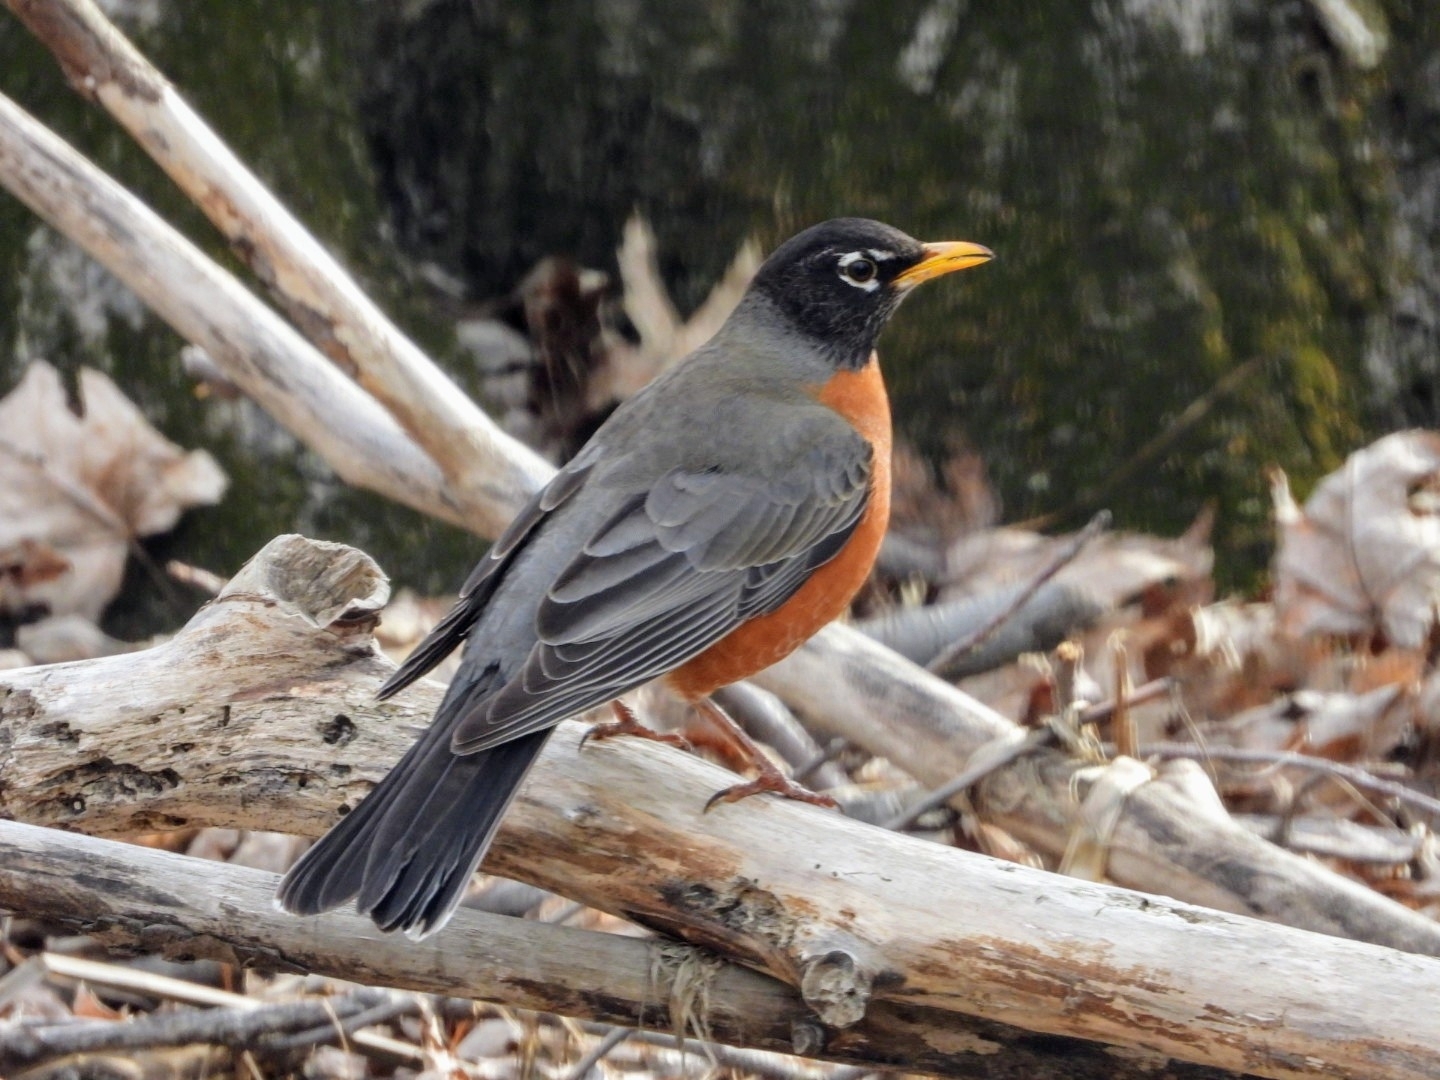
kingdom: Animalia
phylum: Chordata
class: Aves
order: Passeriformes
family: Turdidae
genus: Turdus
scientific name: Turdus migratorius
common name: American robin
